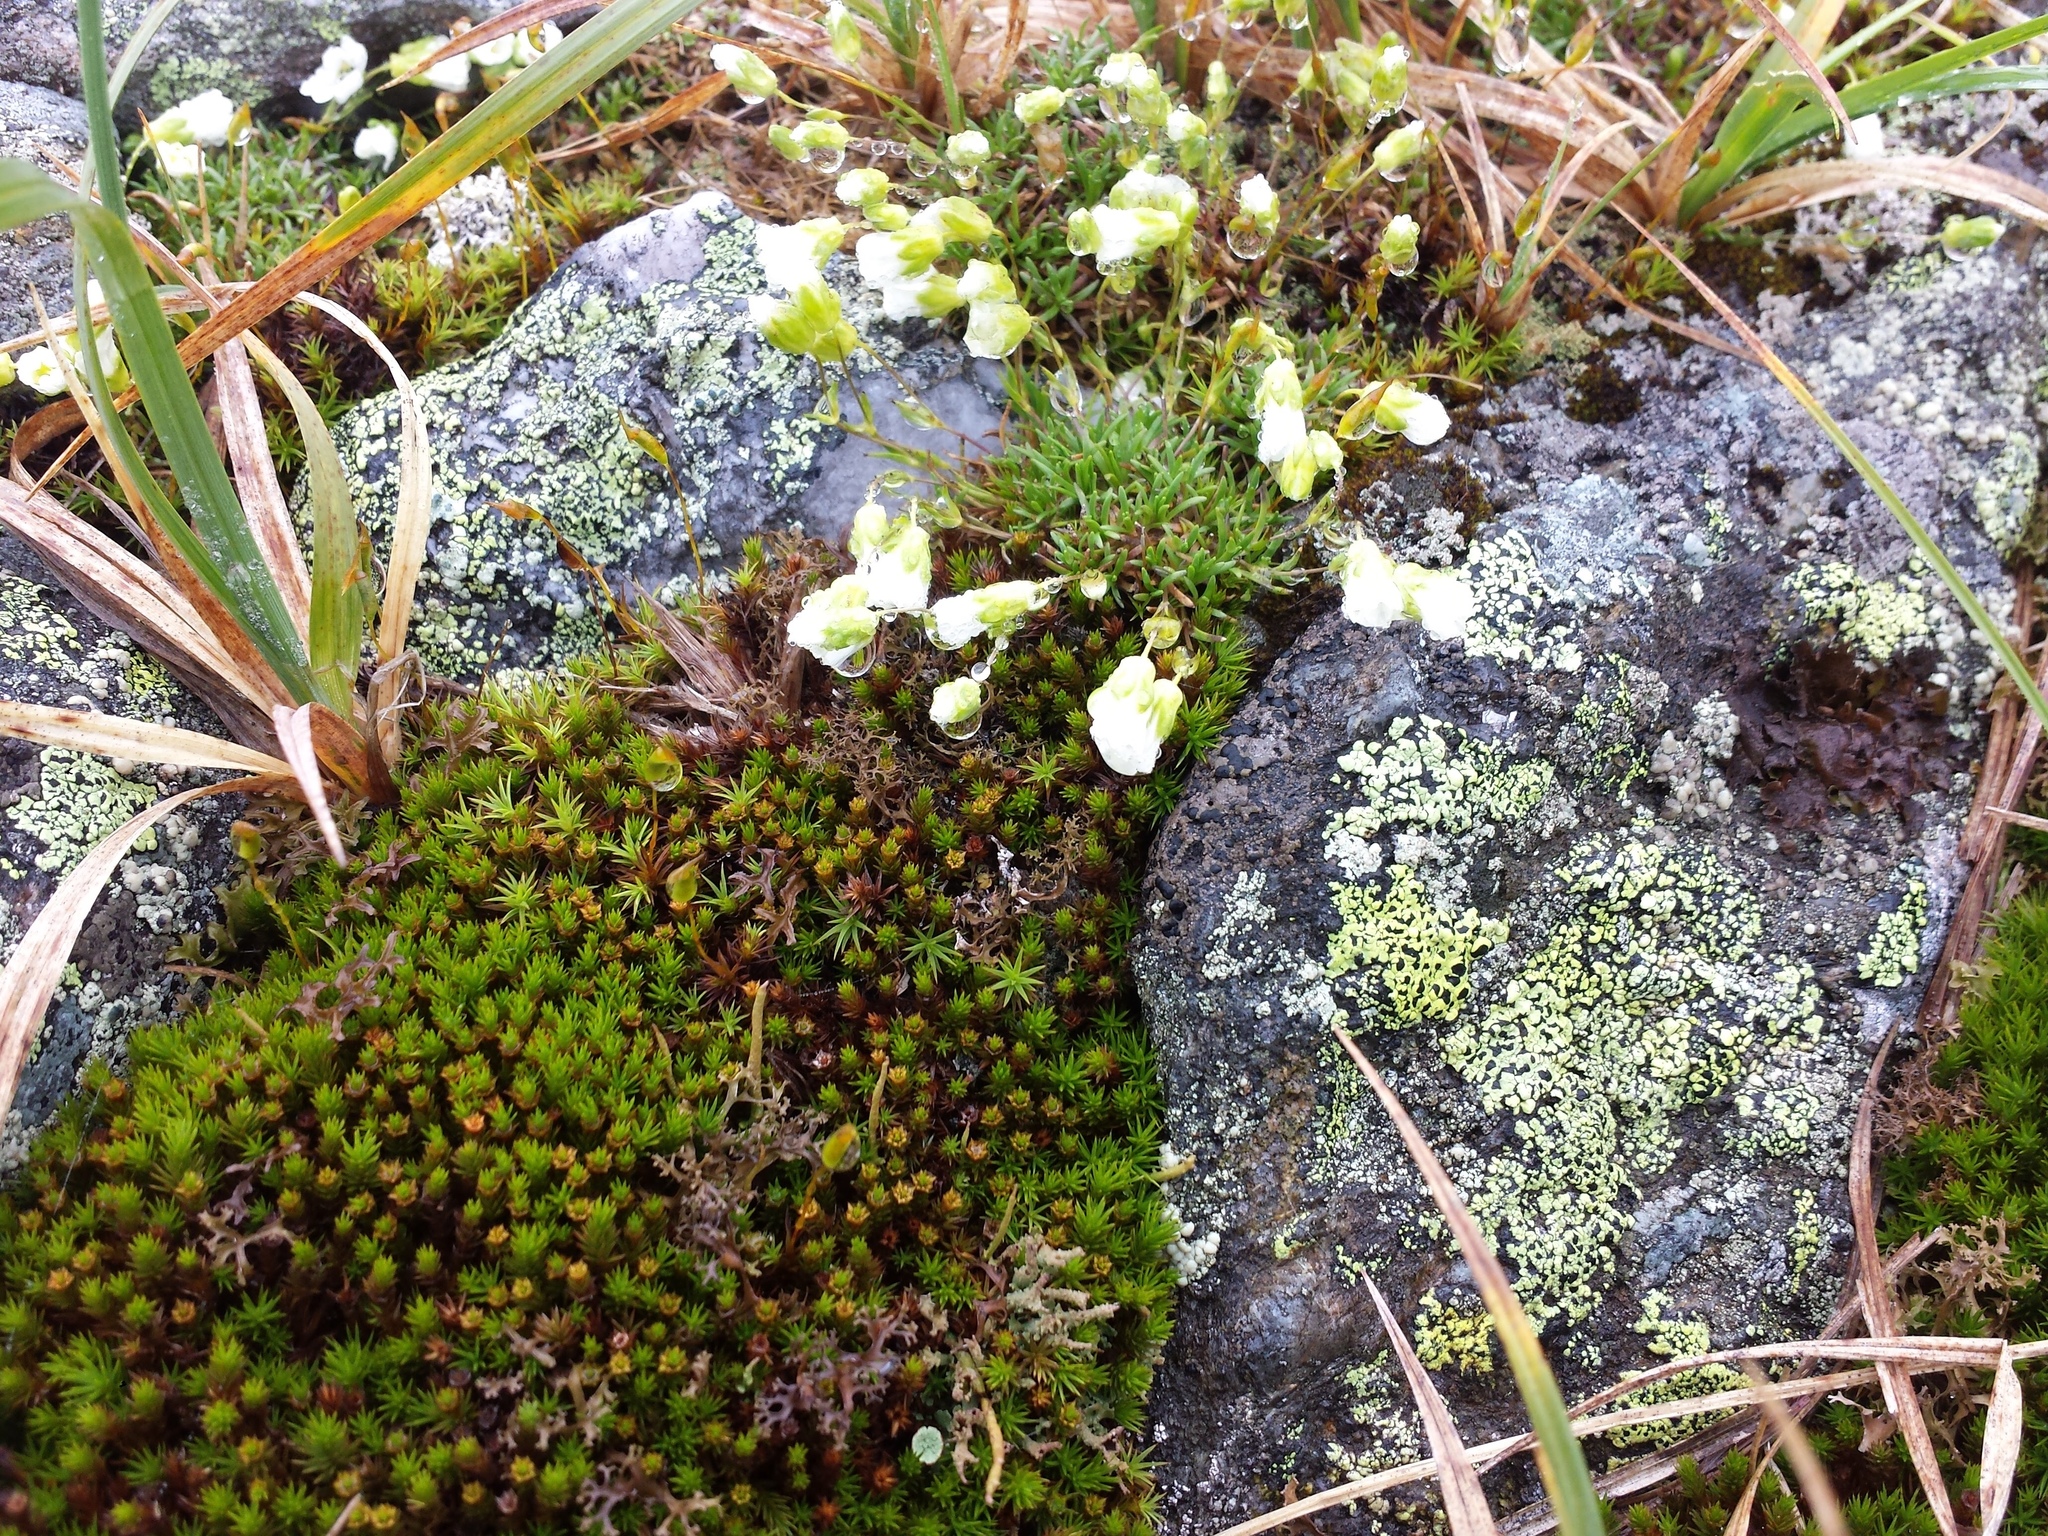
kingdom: Plantae
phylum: Tracheophyta
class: Magnoliopsida
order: Caryophyllales
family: Caryophyllaceae
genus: Geocarpon
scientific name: Geocarpon groenlandicum
